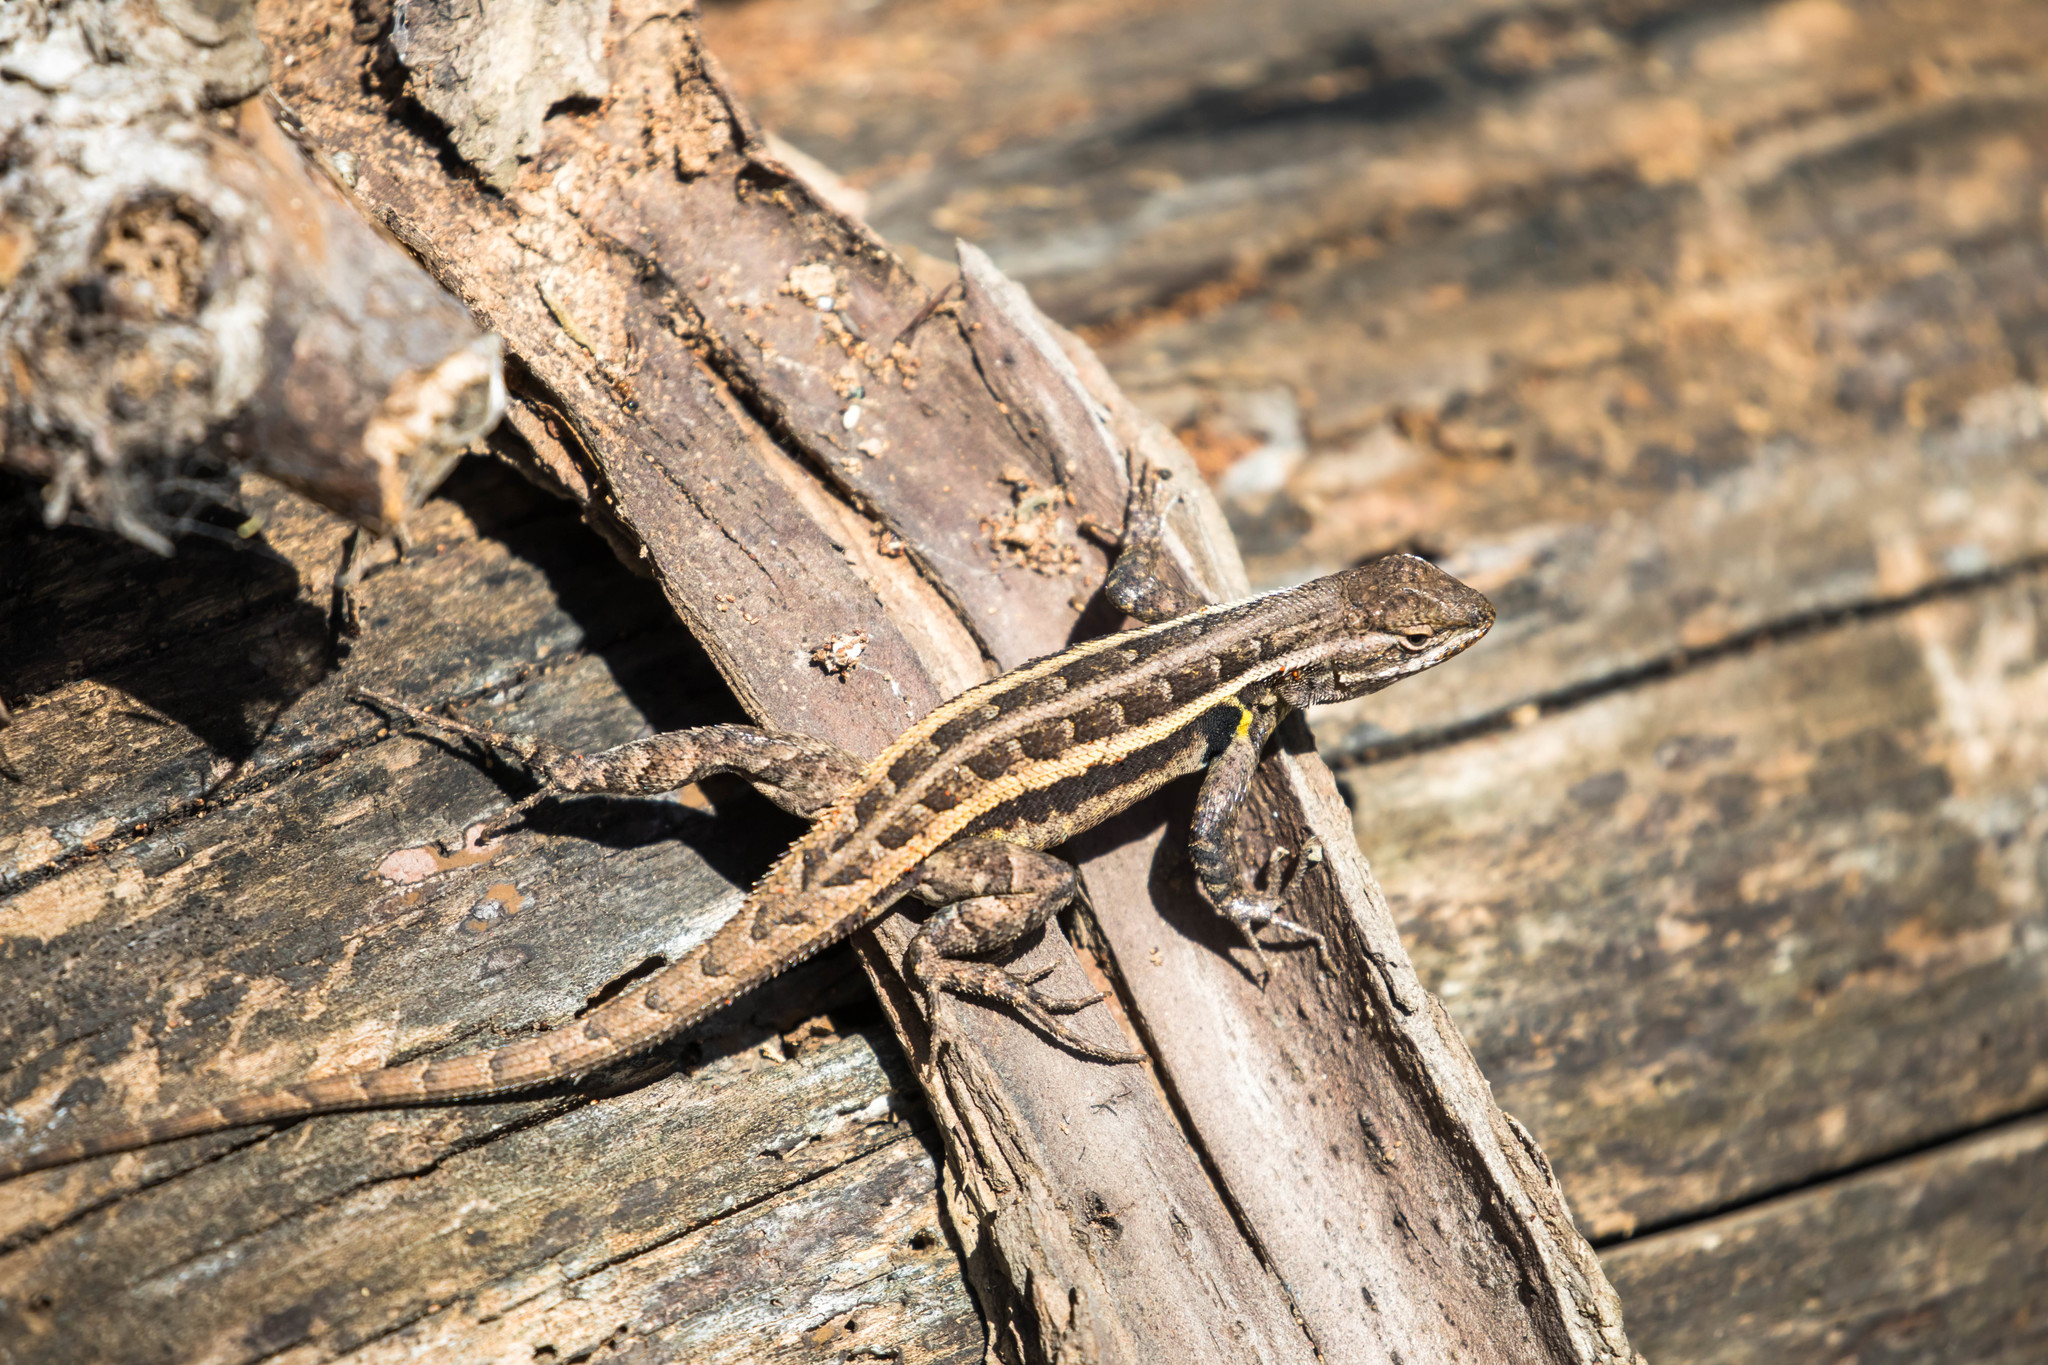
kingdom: Animalia
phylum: Chordata
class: Squamata
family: Phrynosomatidae
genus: Sceloporus
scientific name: Sceloporus variabilis
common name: Rosebelly lizard
